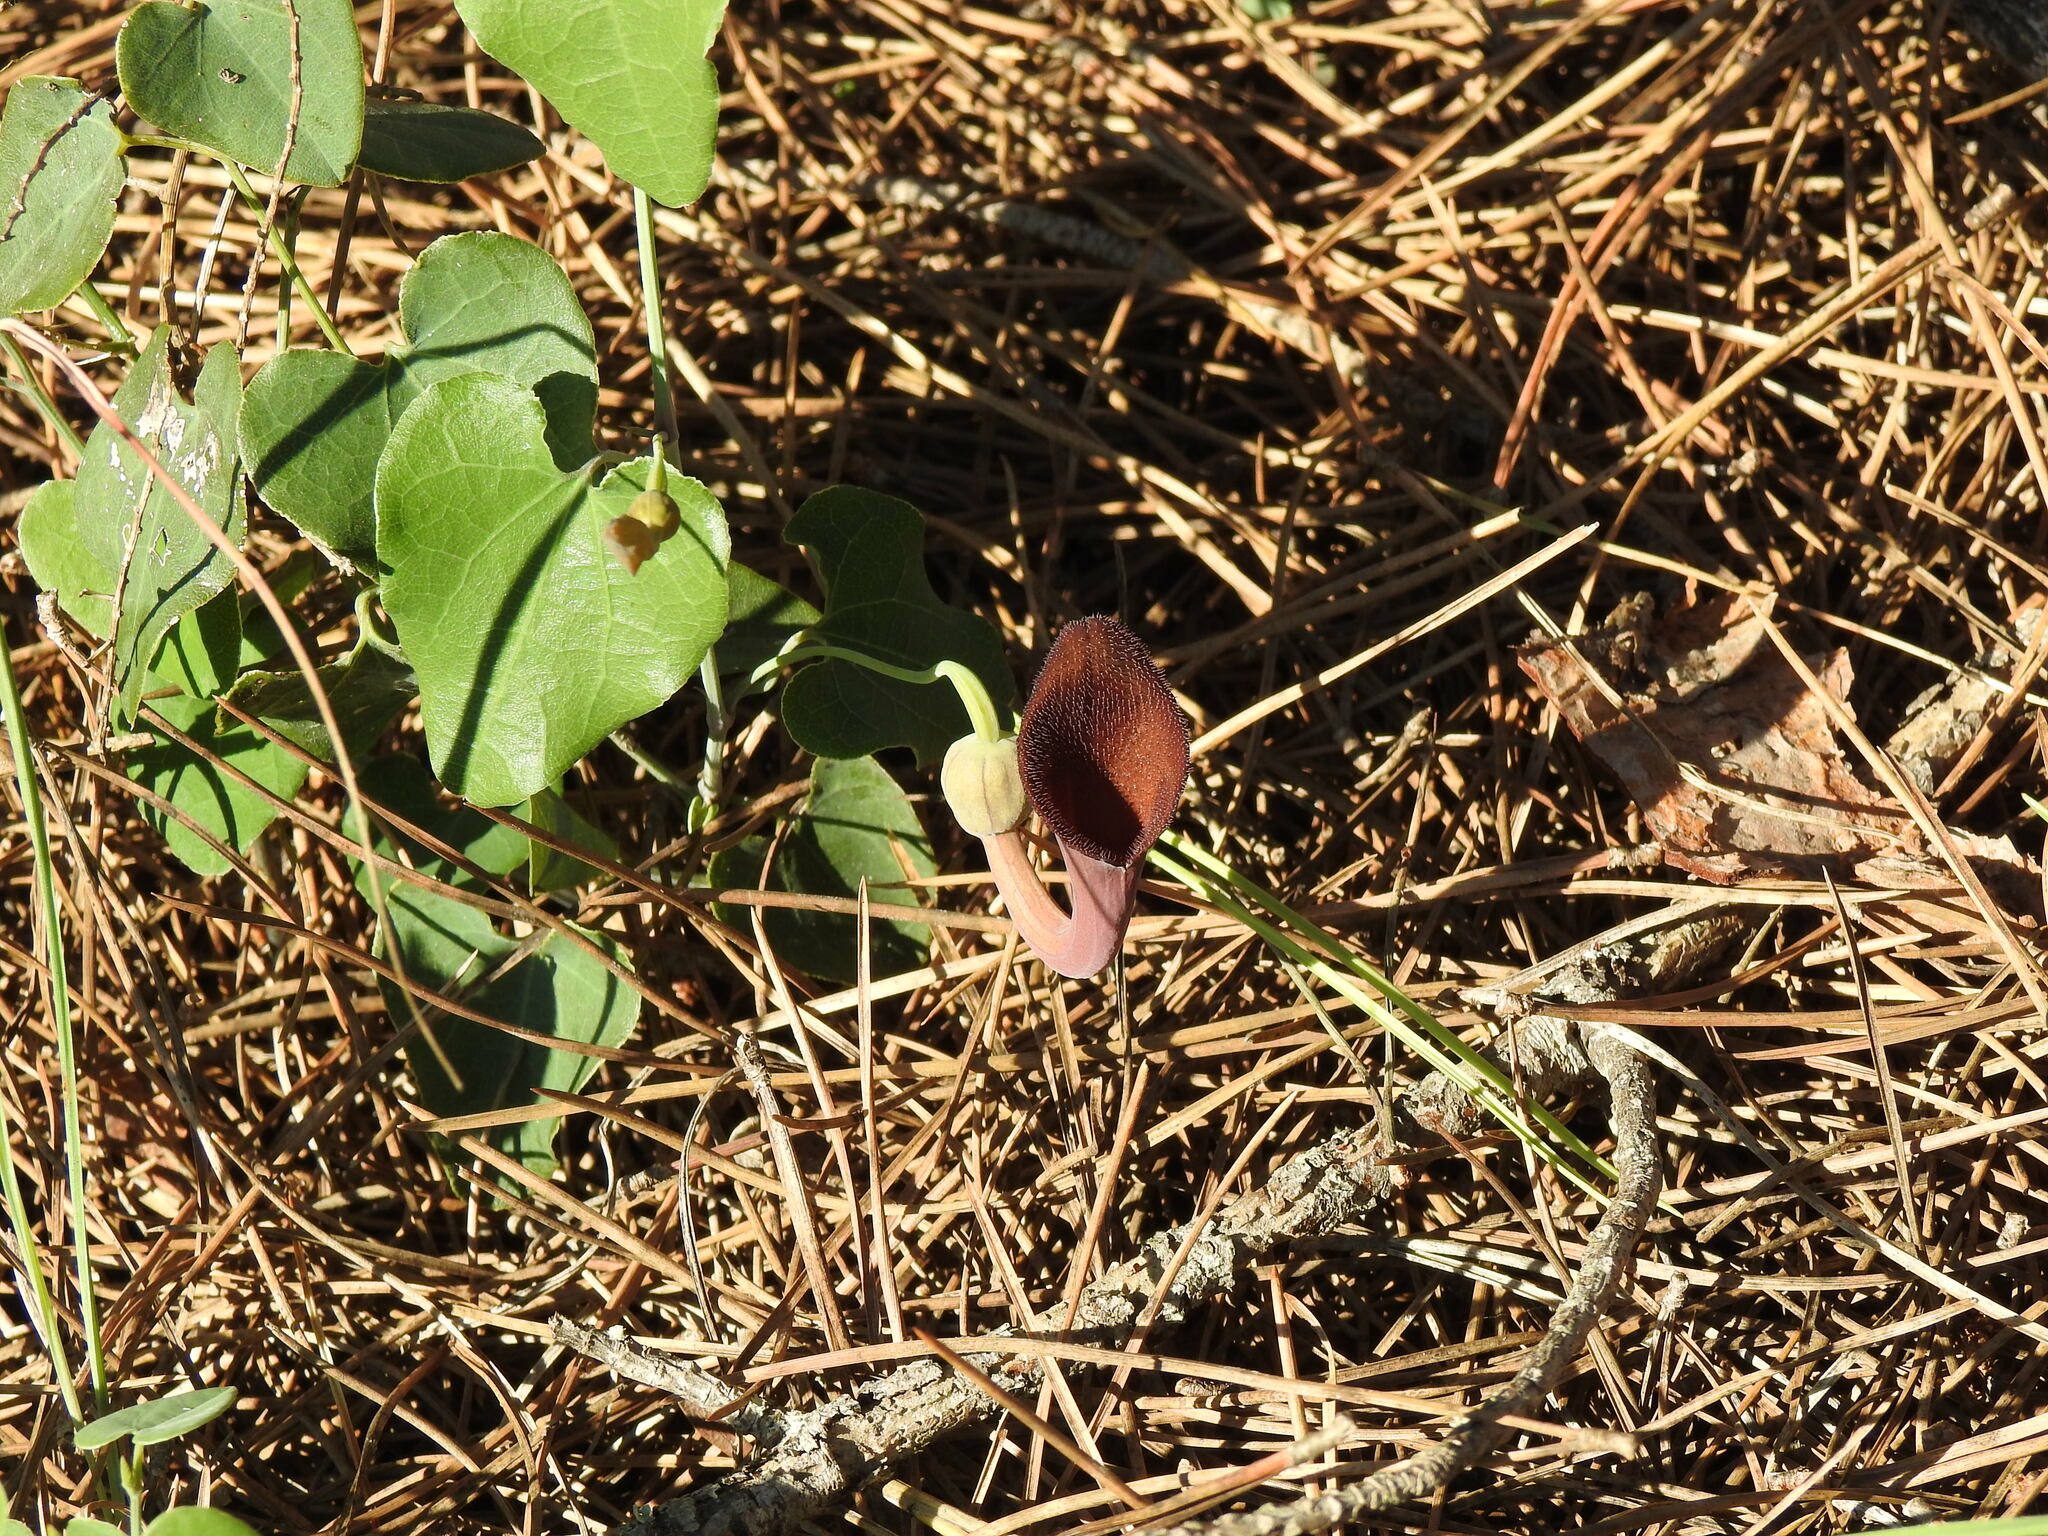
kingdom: Plantae
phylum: Tracheophyta
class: Magnoliopsida
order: Piperales
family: Aristolochiaceae
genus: Aristolochia
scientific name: Aristolochia baetica
